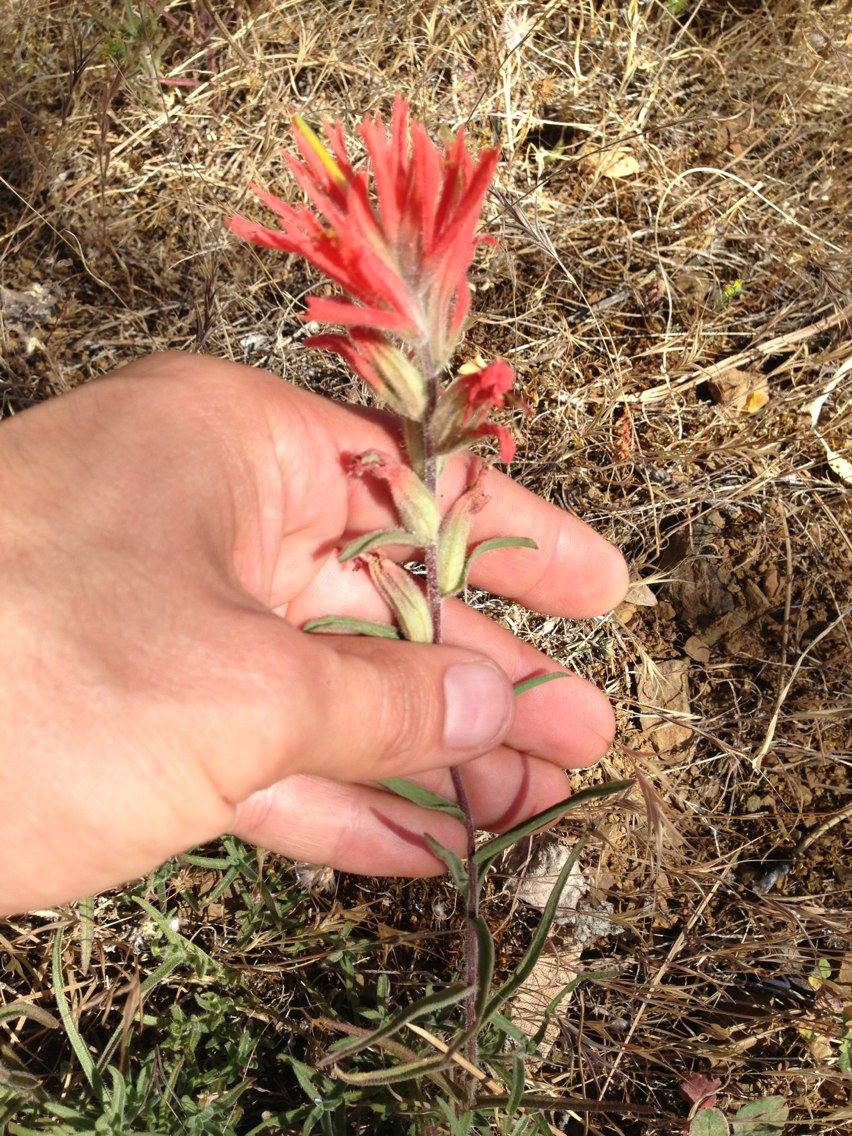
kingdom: Plantae
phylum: Tracheophyta
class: Magnoliopsida
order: Lamiales
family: Orobanchaceae
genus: Castilleja
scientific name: Castilleja affinis
